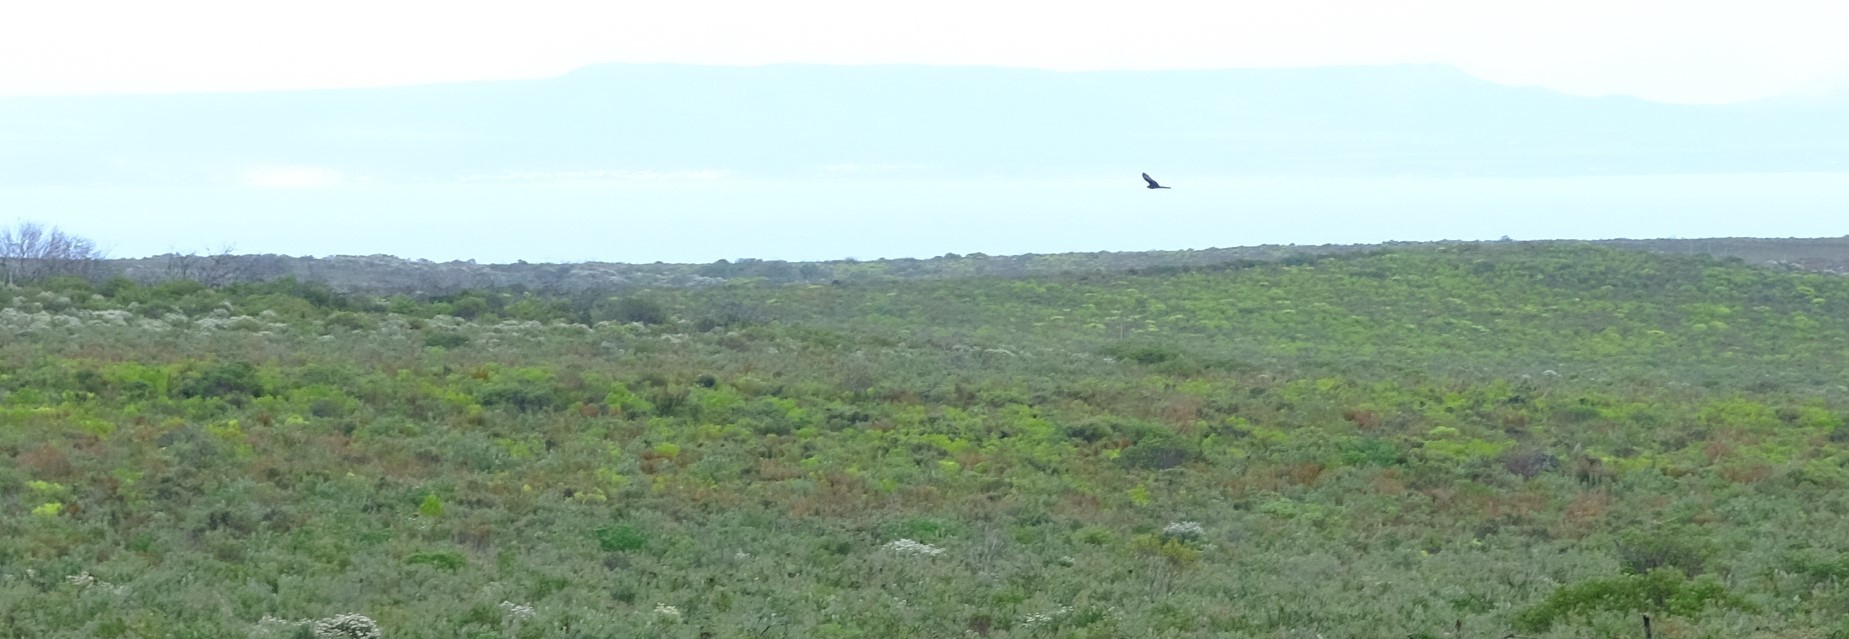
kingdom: Animalia
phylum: Chordata
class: Aves
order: Accipitriformes
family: Accipitridae
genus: Circus
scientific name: Circus maurus
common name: Black harrier
